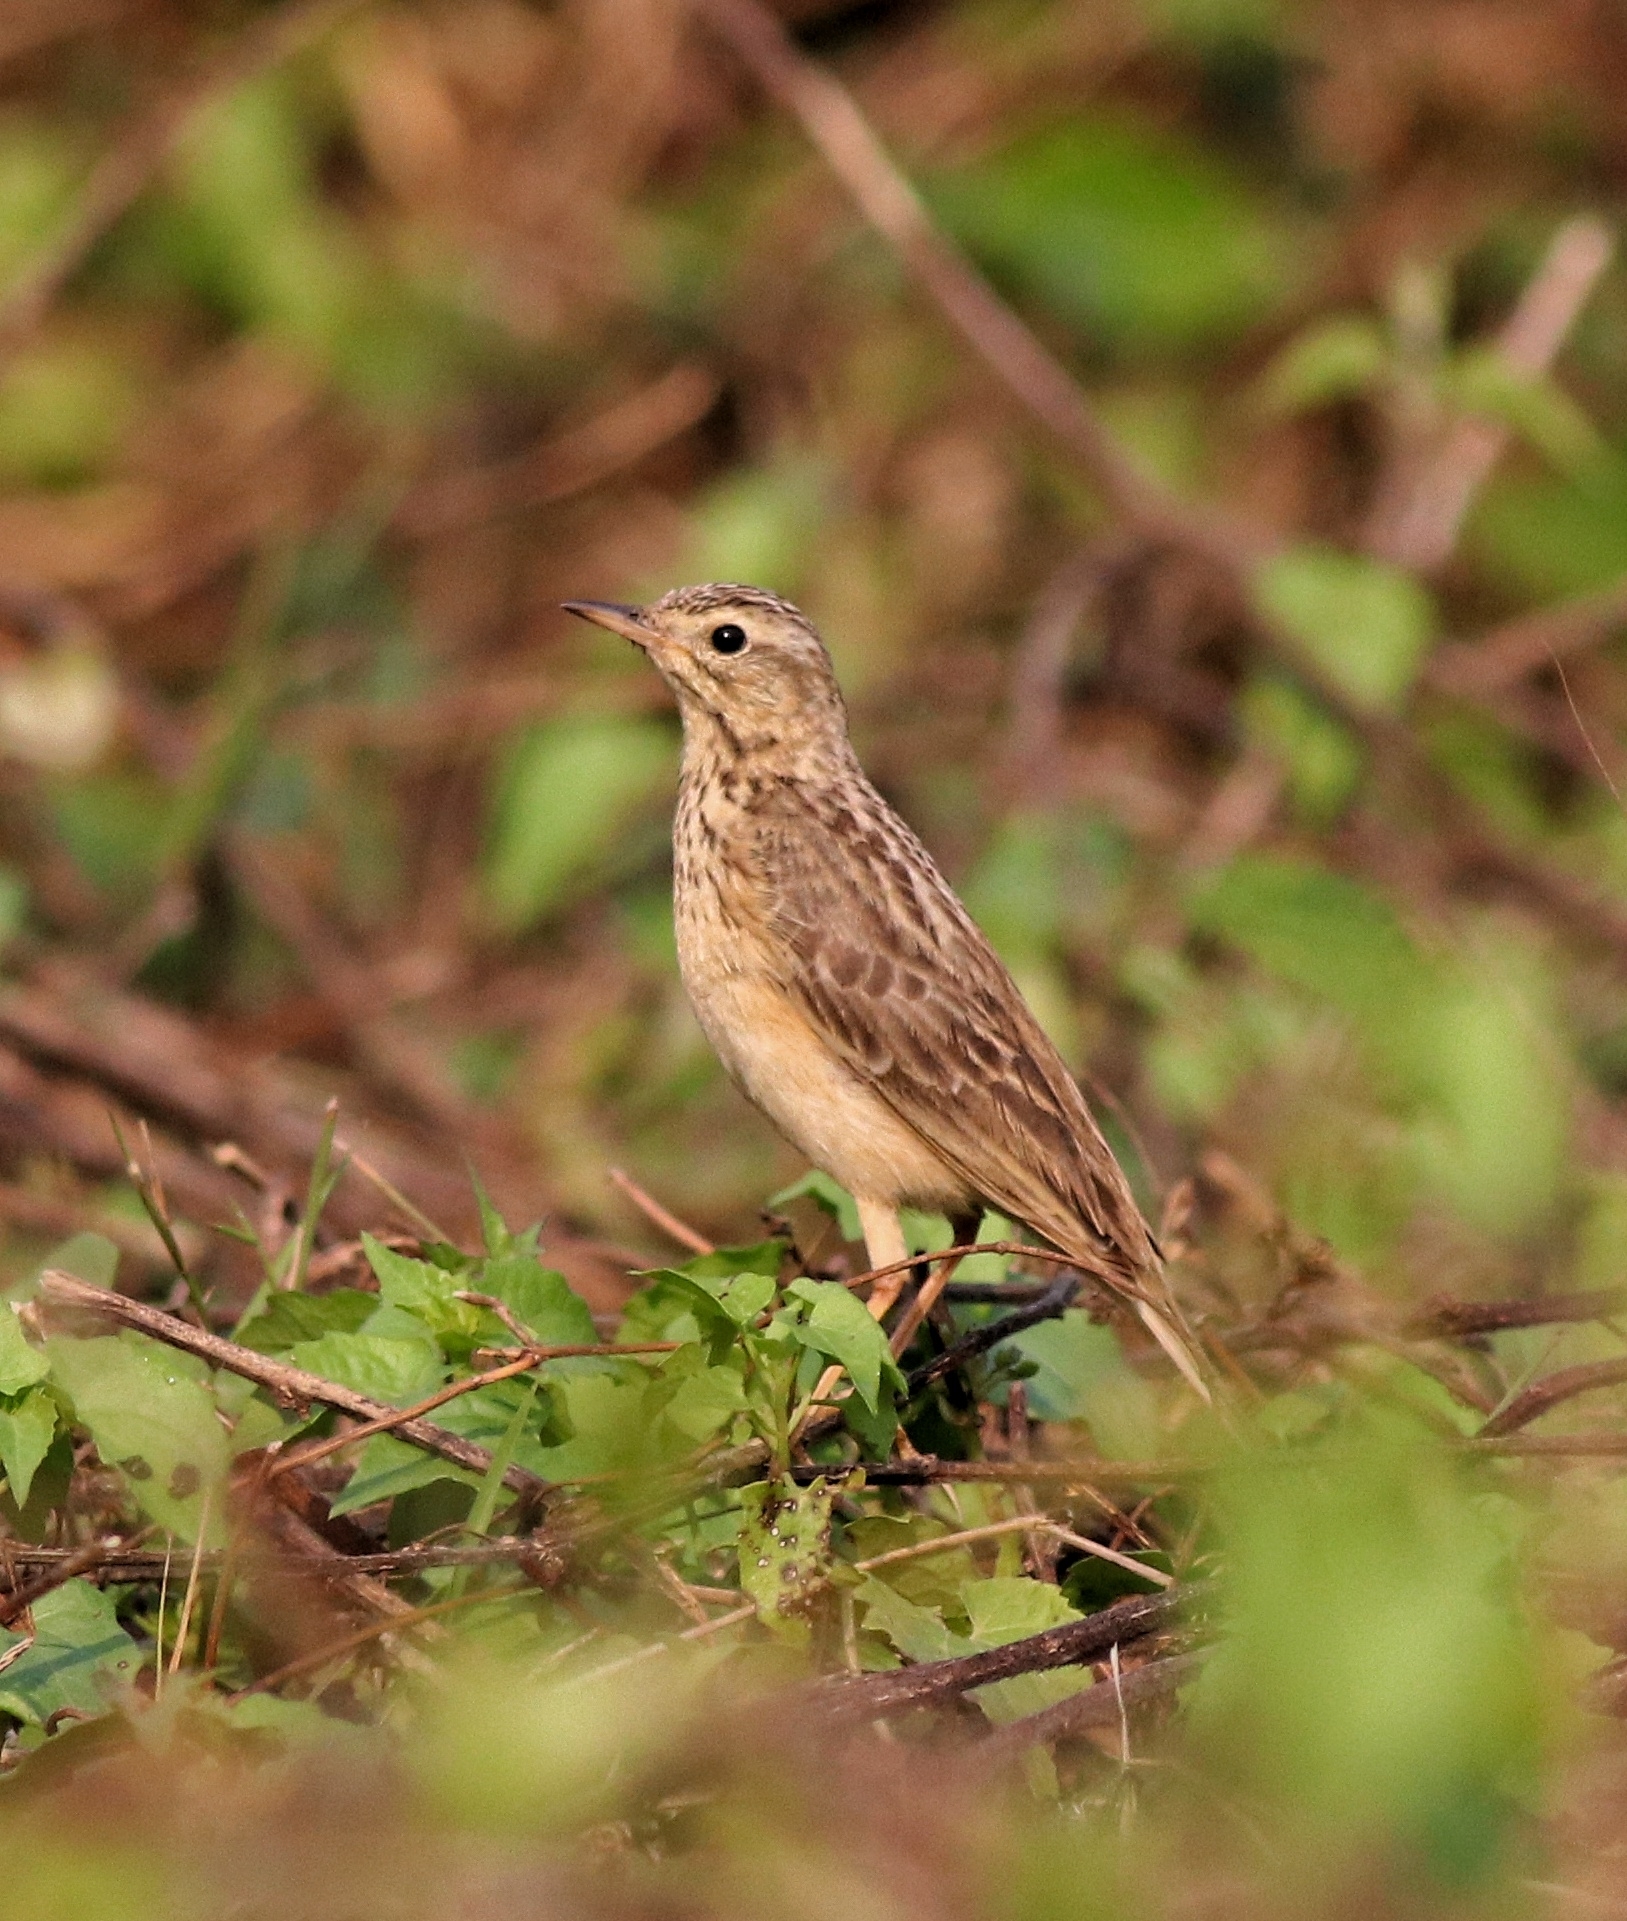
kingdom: Animalia
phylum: Chordata
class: Aves
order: Passeriformes
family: Motacillidae
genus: Anthus
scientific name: Anthus godlewskii
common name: Blyth's pipit
